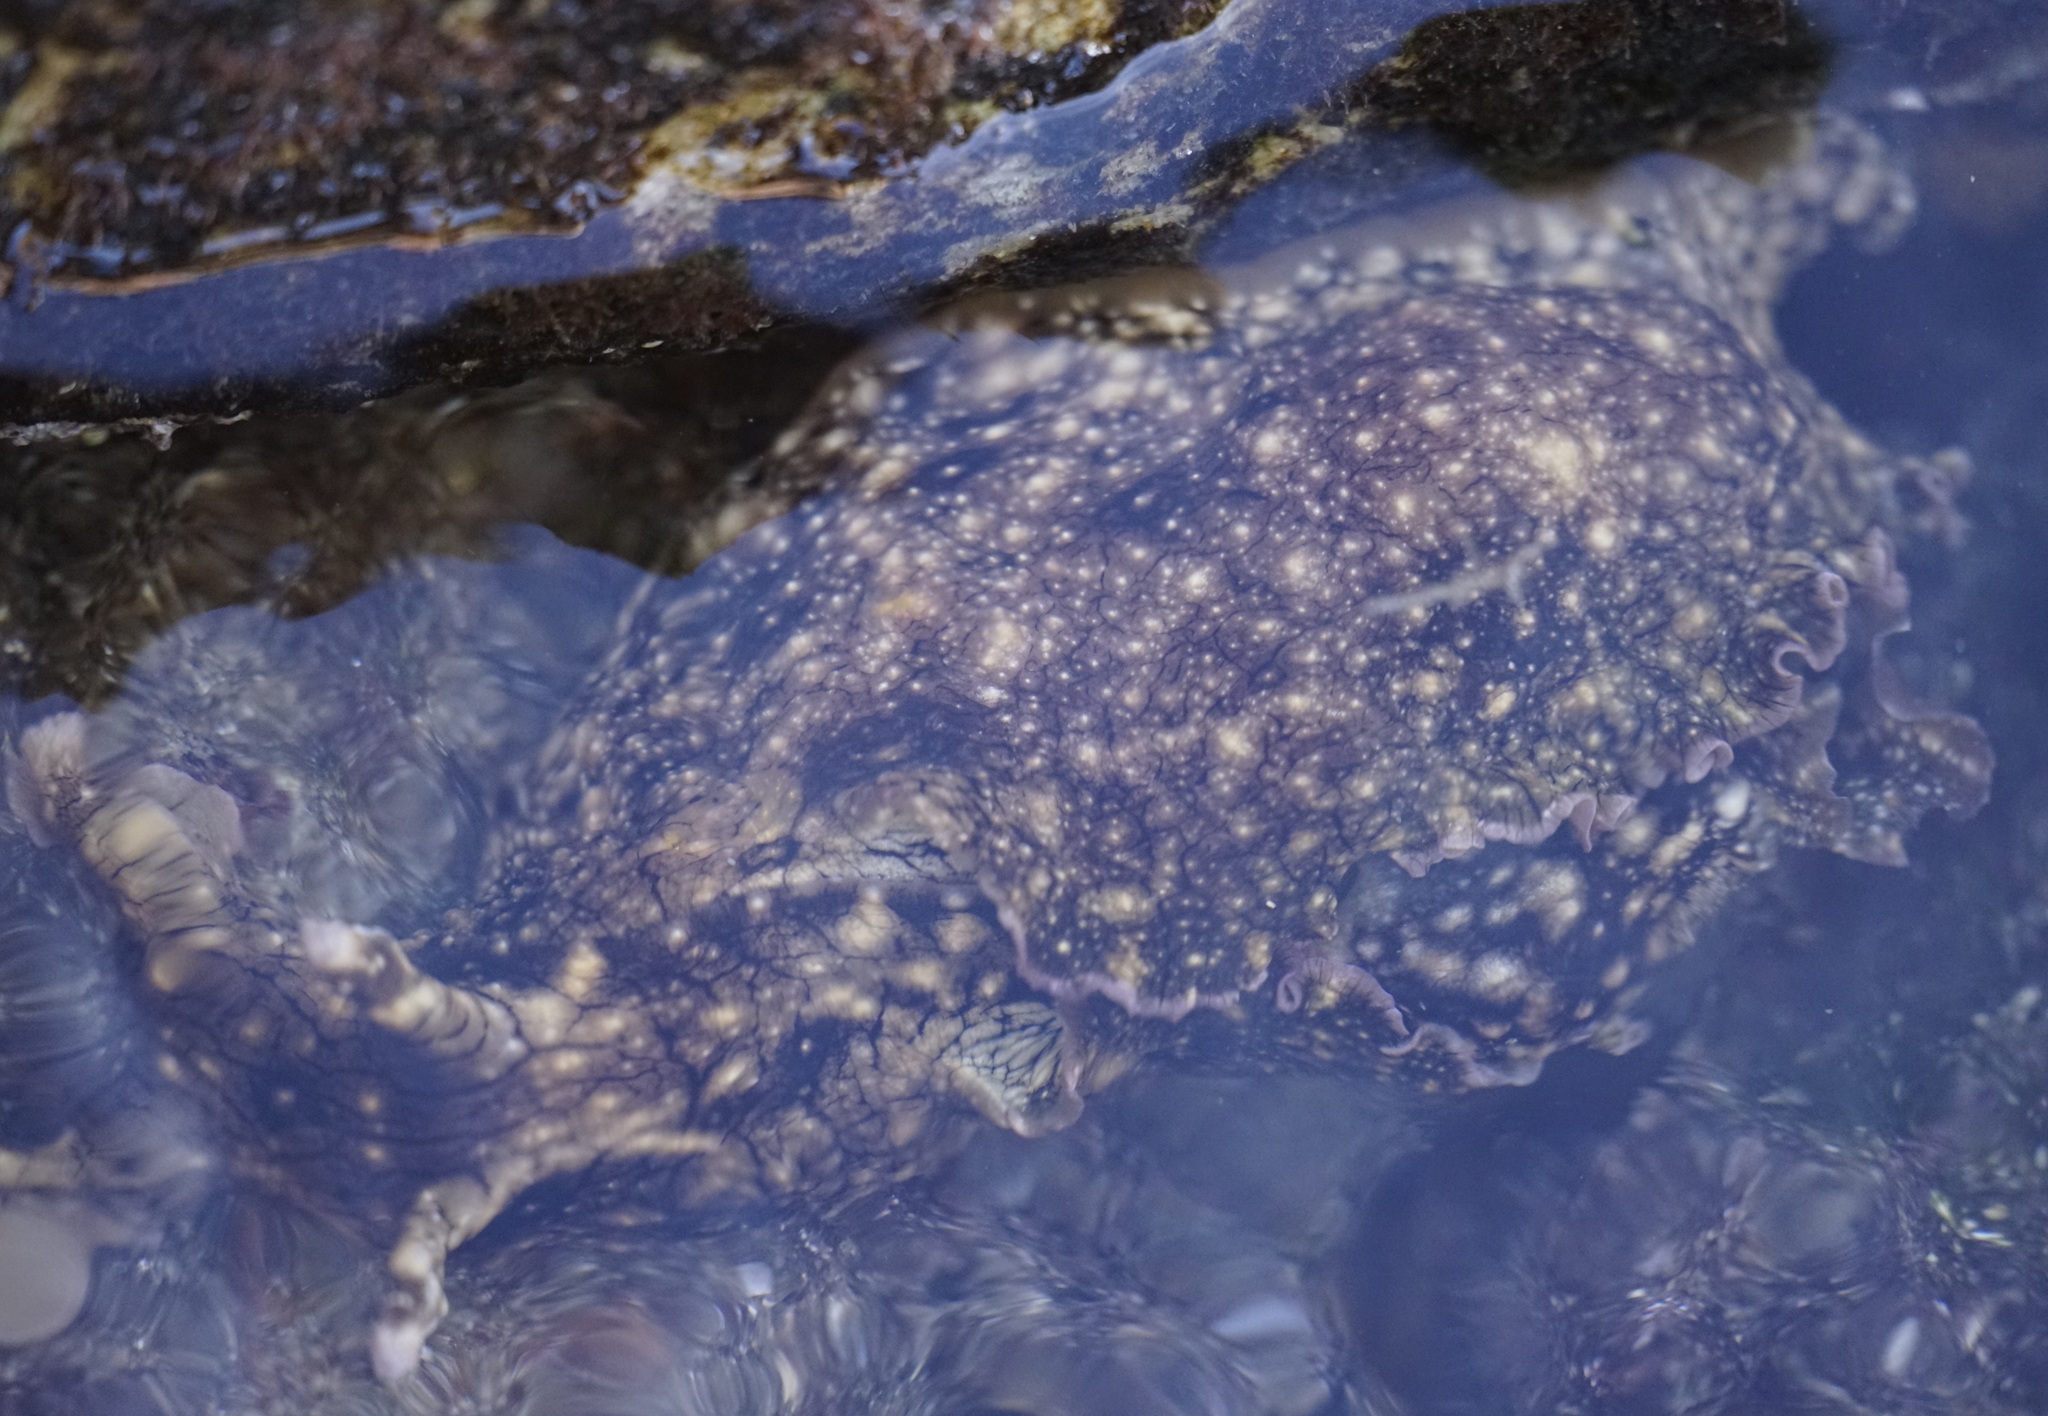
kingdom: Animalia
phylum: Mollusca
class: Gastropoda
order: Aplysiida
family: Aplysiidae
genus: Aplysia
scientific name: Aplysia argus
